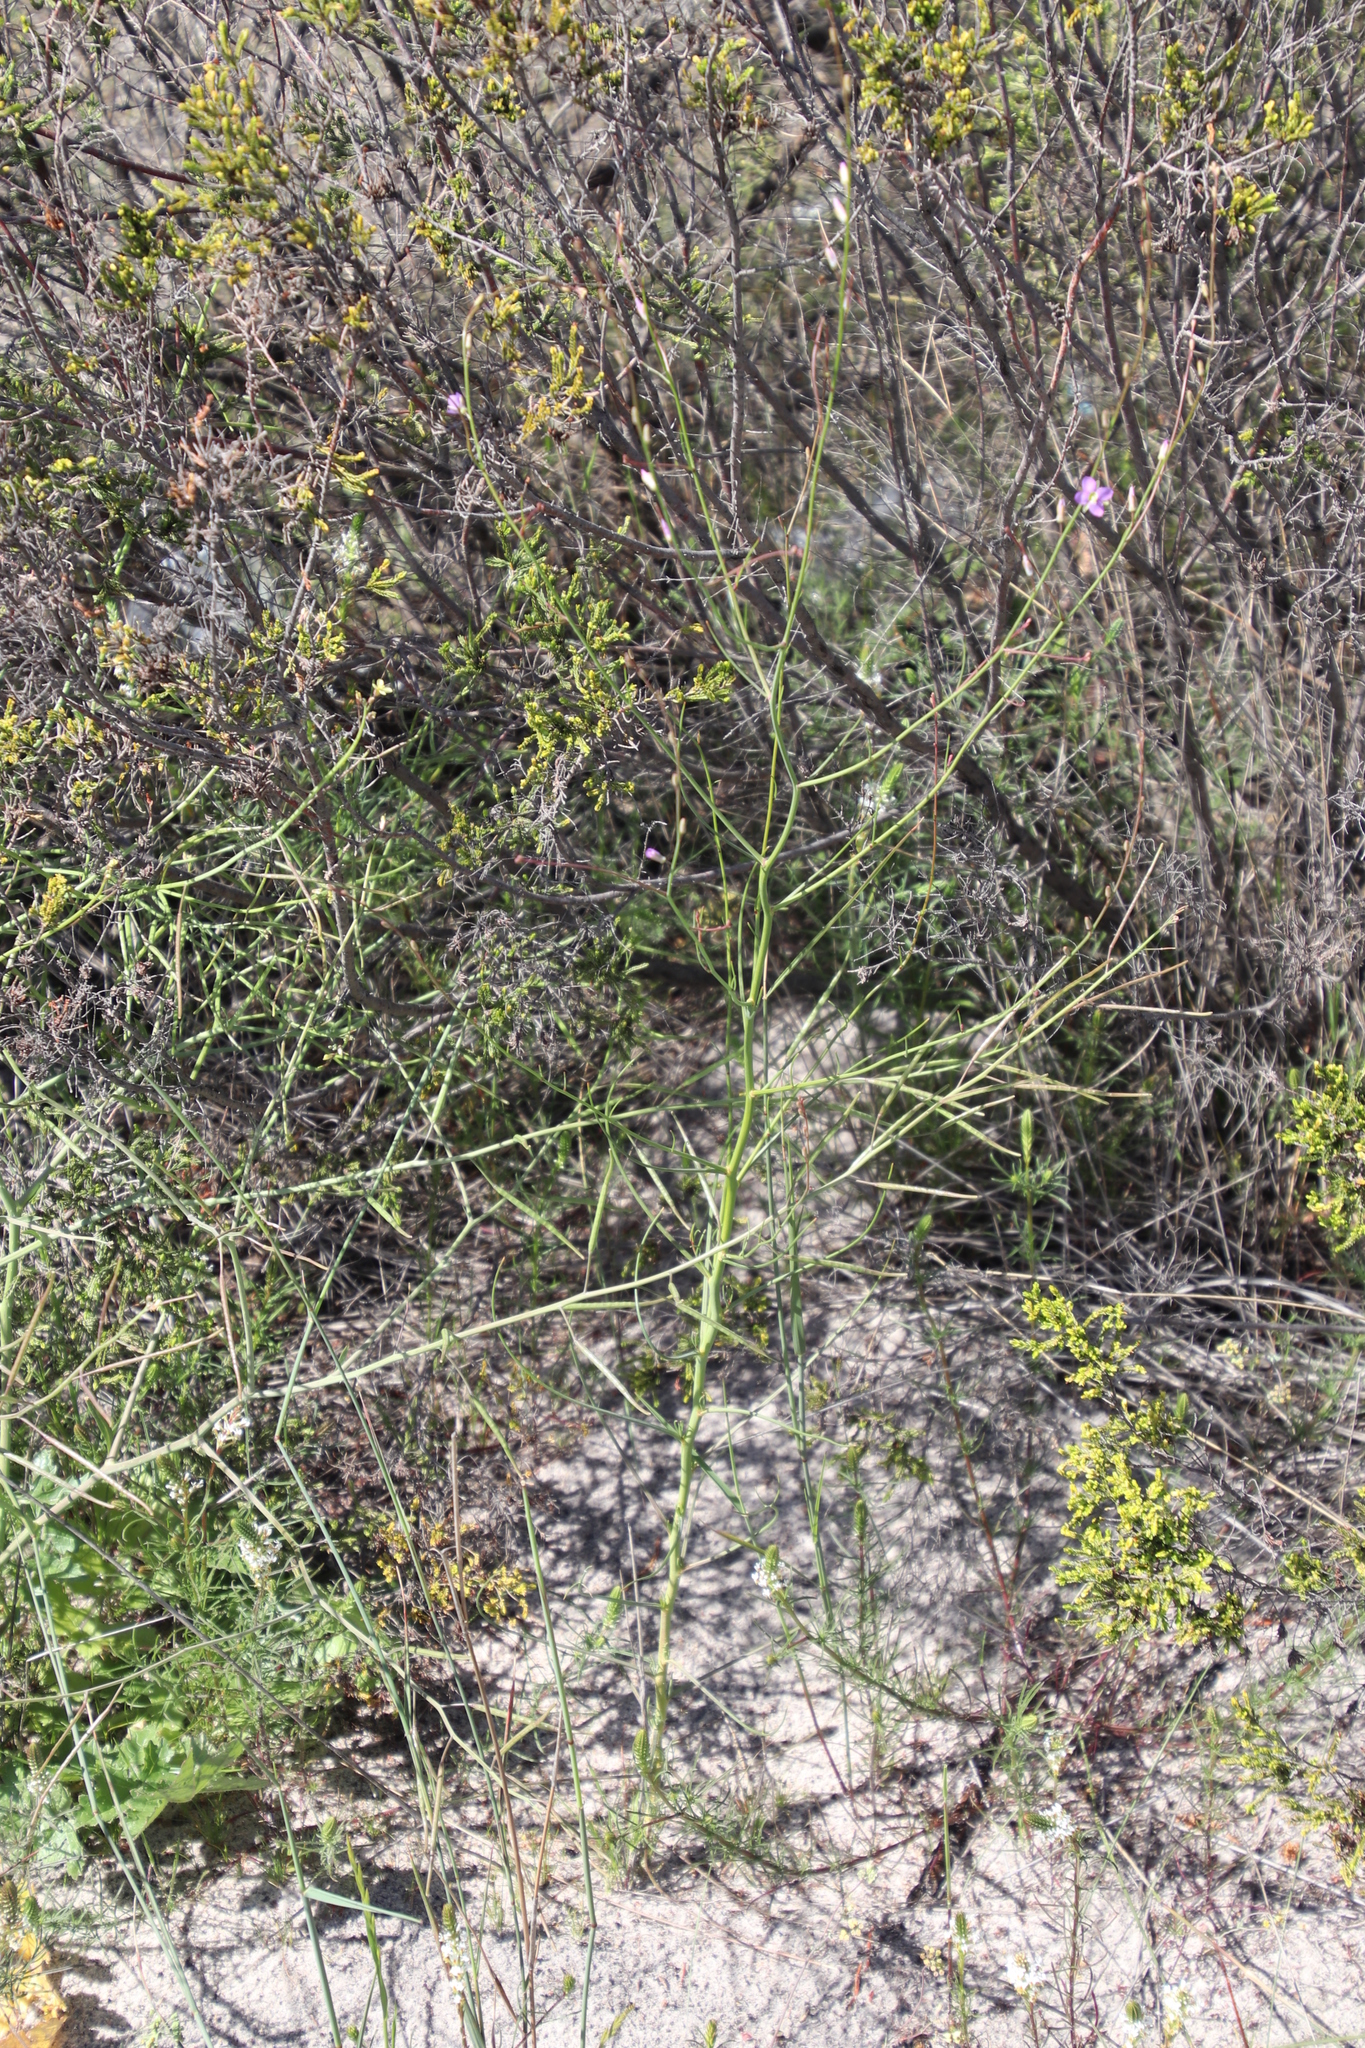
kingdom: Plantae
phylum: Tracheophyta
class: Magnoliopsida
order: Brassicales
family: Brassicaceae
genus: Heliophila
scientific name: Heliophila linoides
